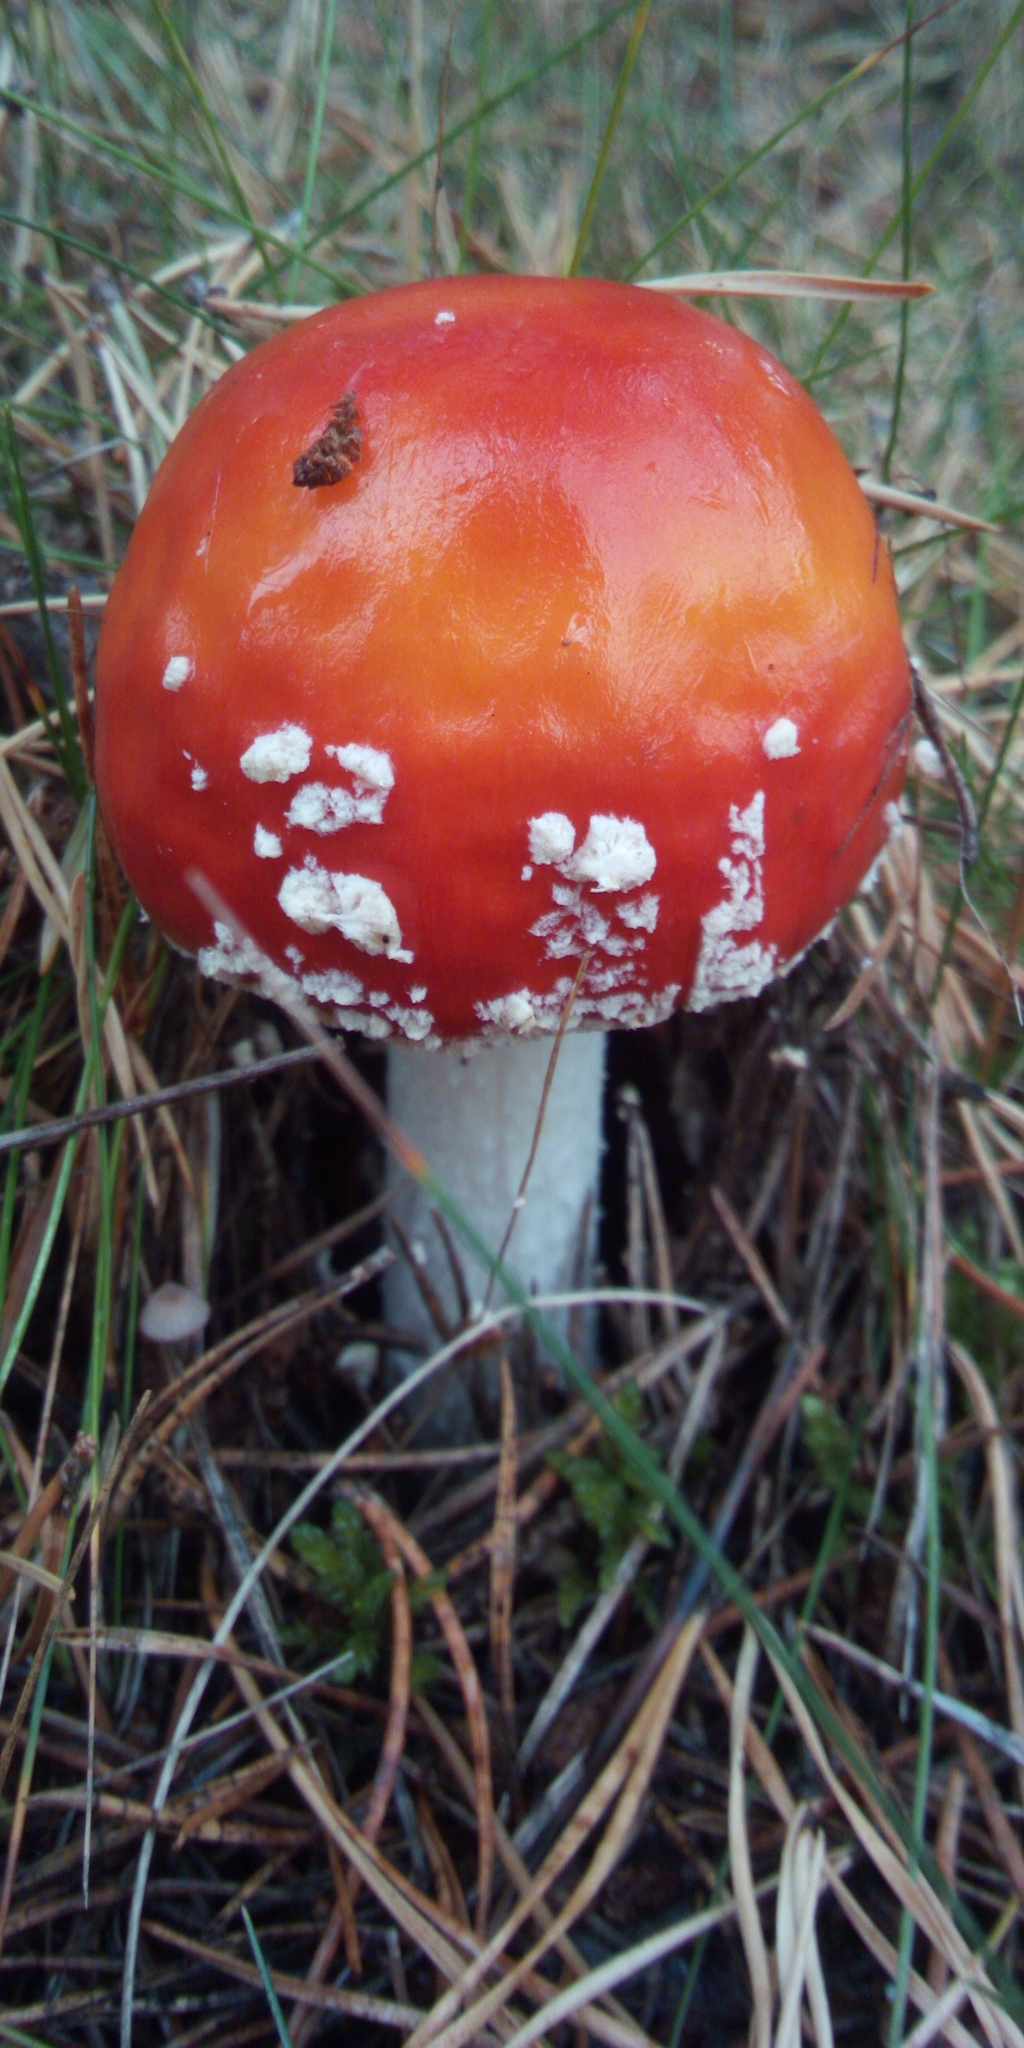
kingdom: Fungi
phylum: Basidiomycota
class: Agaricomycetes
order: Agaricales
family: Amanitaceae
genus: Amanita
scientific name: Amanita muscaria
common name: Fly agaric
